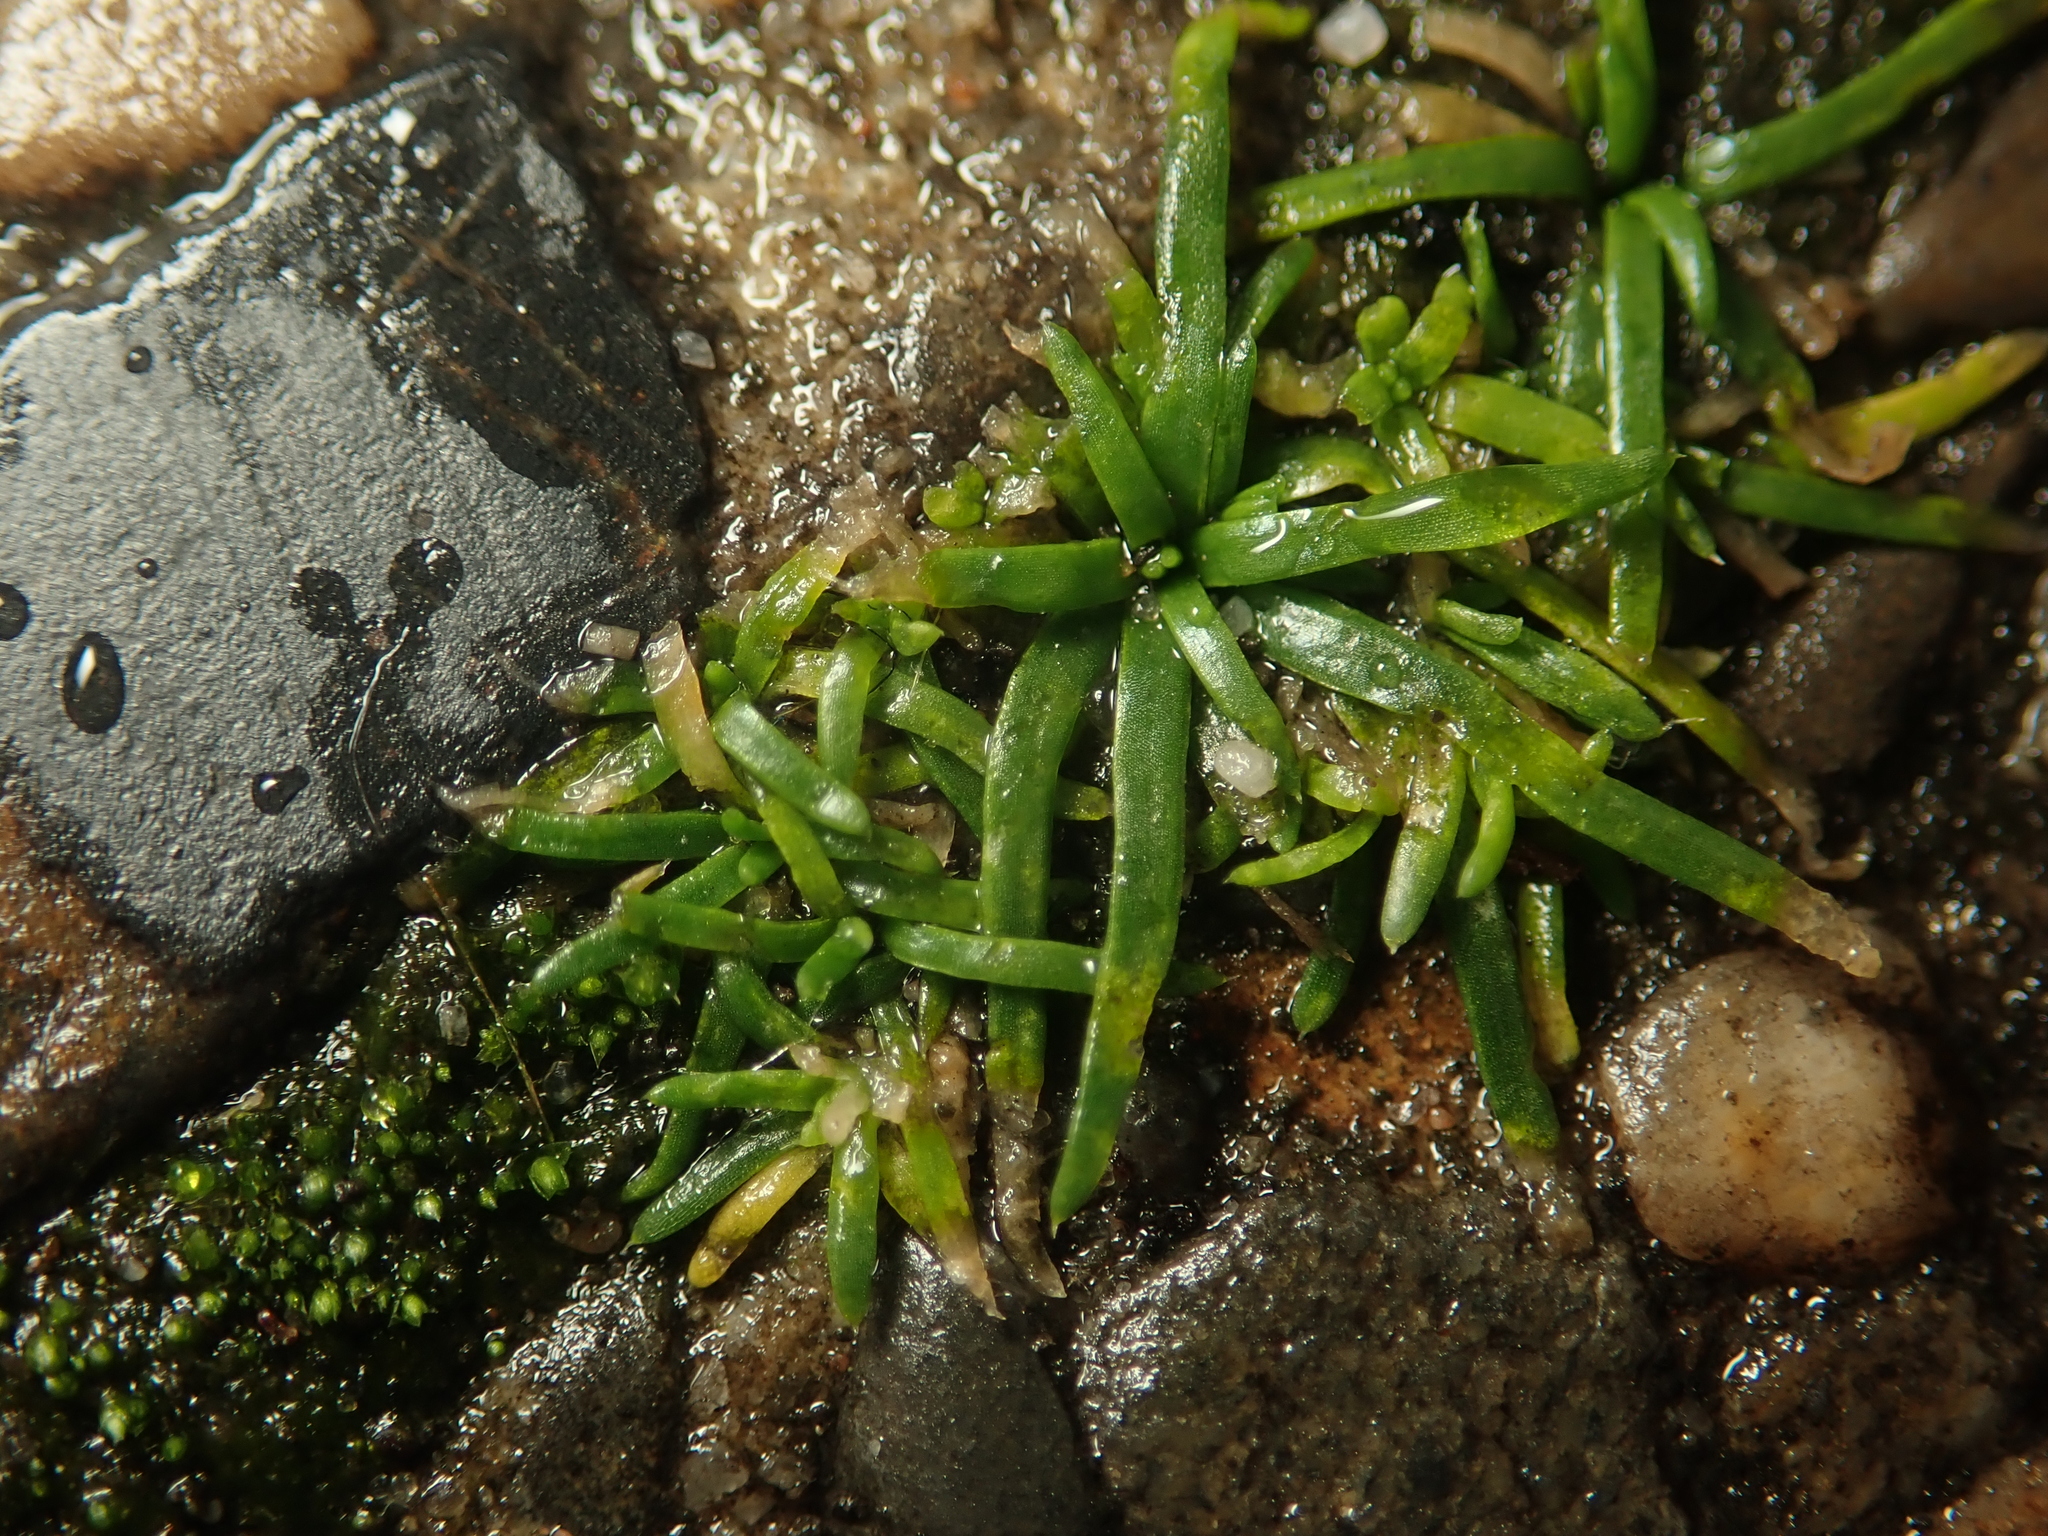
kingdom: Plantae
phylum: Tracheophyta
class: Magnoliopsida
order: Caryophyllales
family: Caryophyllaceae
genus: Sagina
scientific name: Sagina procumbens
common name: Procumbent pearlwort
